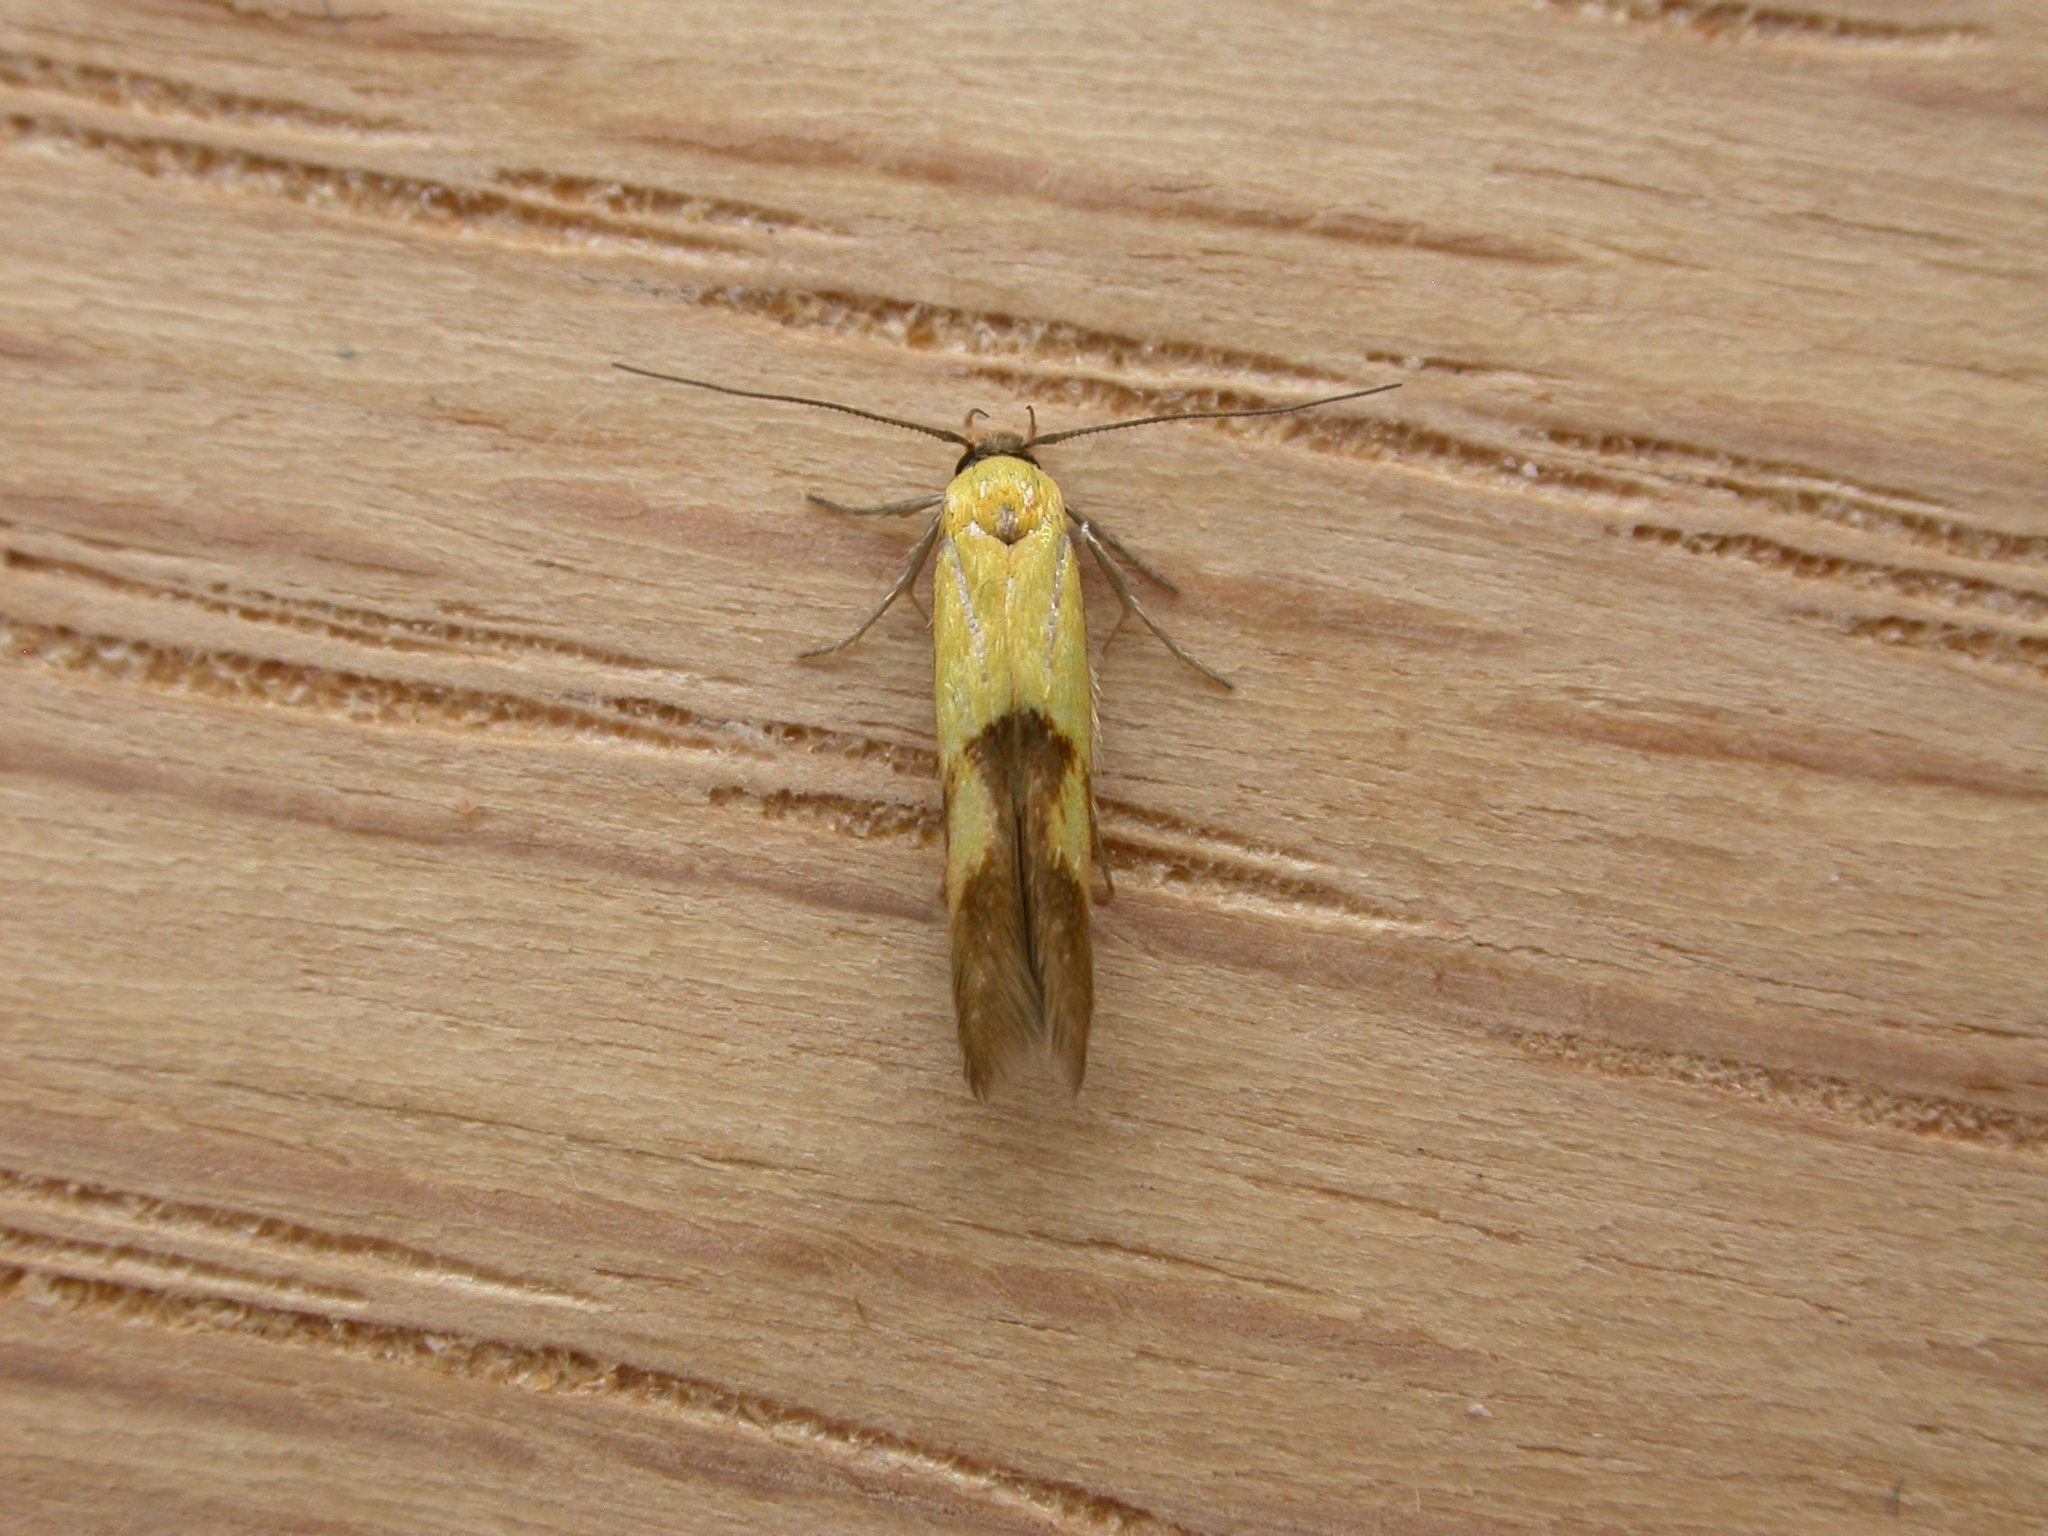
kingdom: Animalia
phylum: Arthropoda
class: Insecta
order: Lepidoptera
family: Stathmopodidae
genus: Stathmopoda
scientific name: Stathmopoda auriferella
